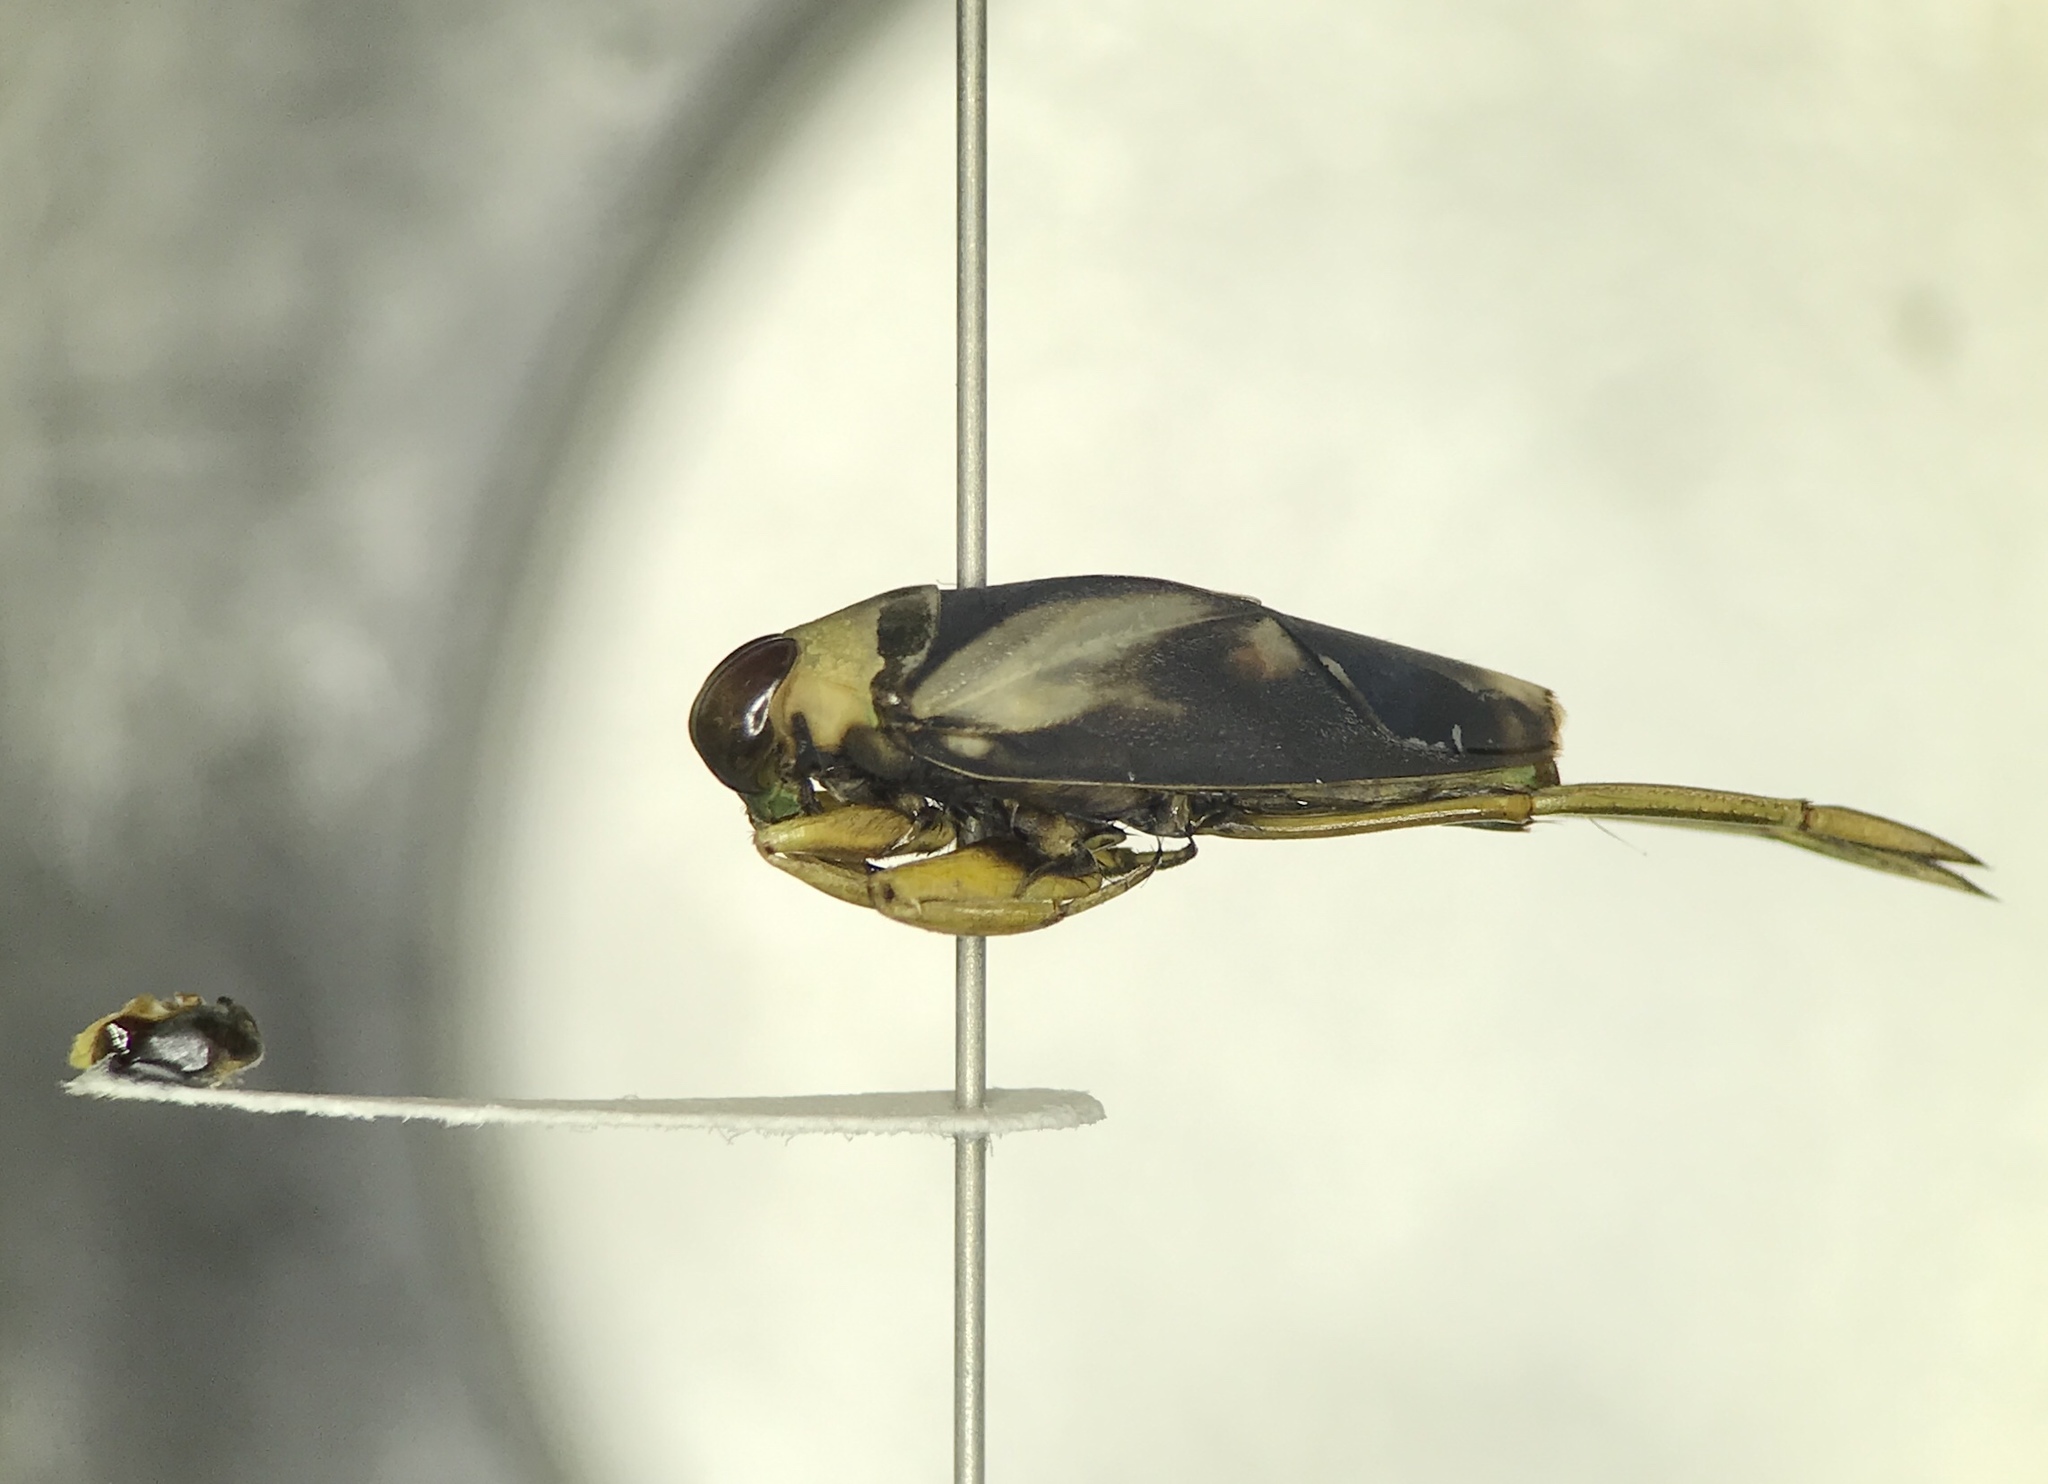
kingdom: Animalia
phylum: Arthropoda
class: Insecta
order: Hemiptera
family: Notonectidae
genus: Notonecta
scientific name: Notonecta indica
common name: Backswimmer
